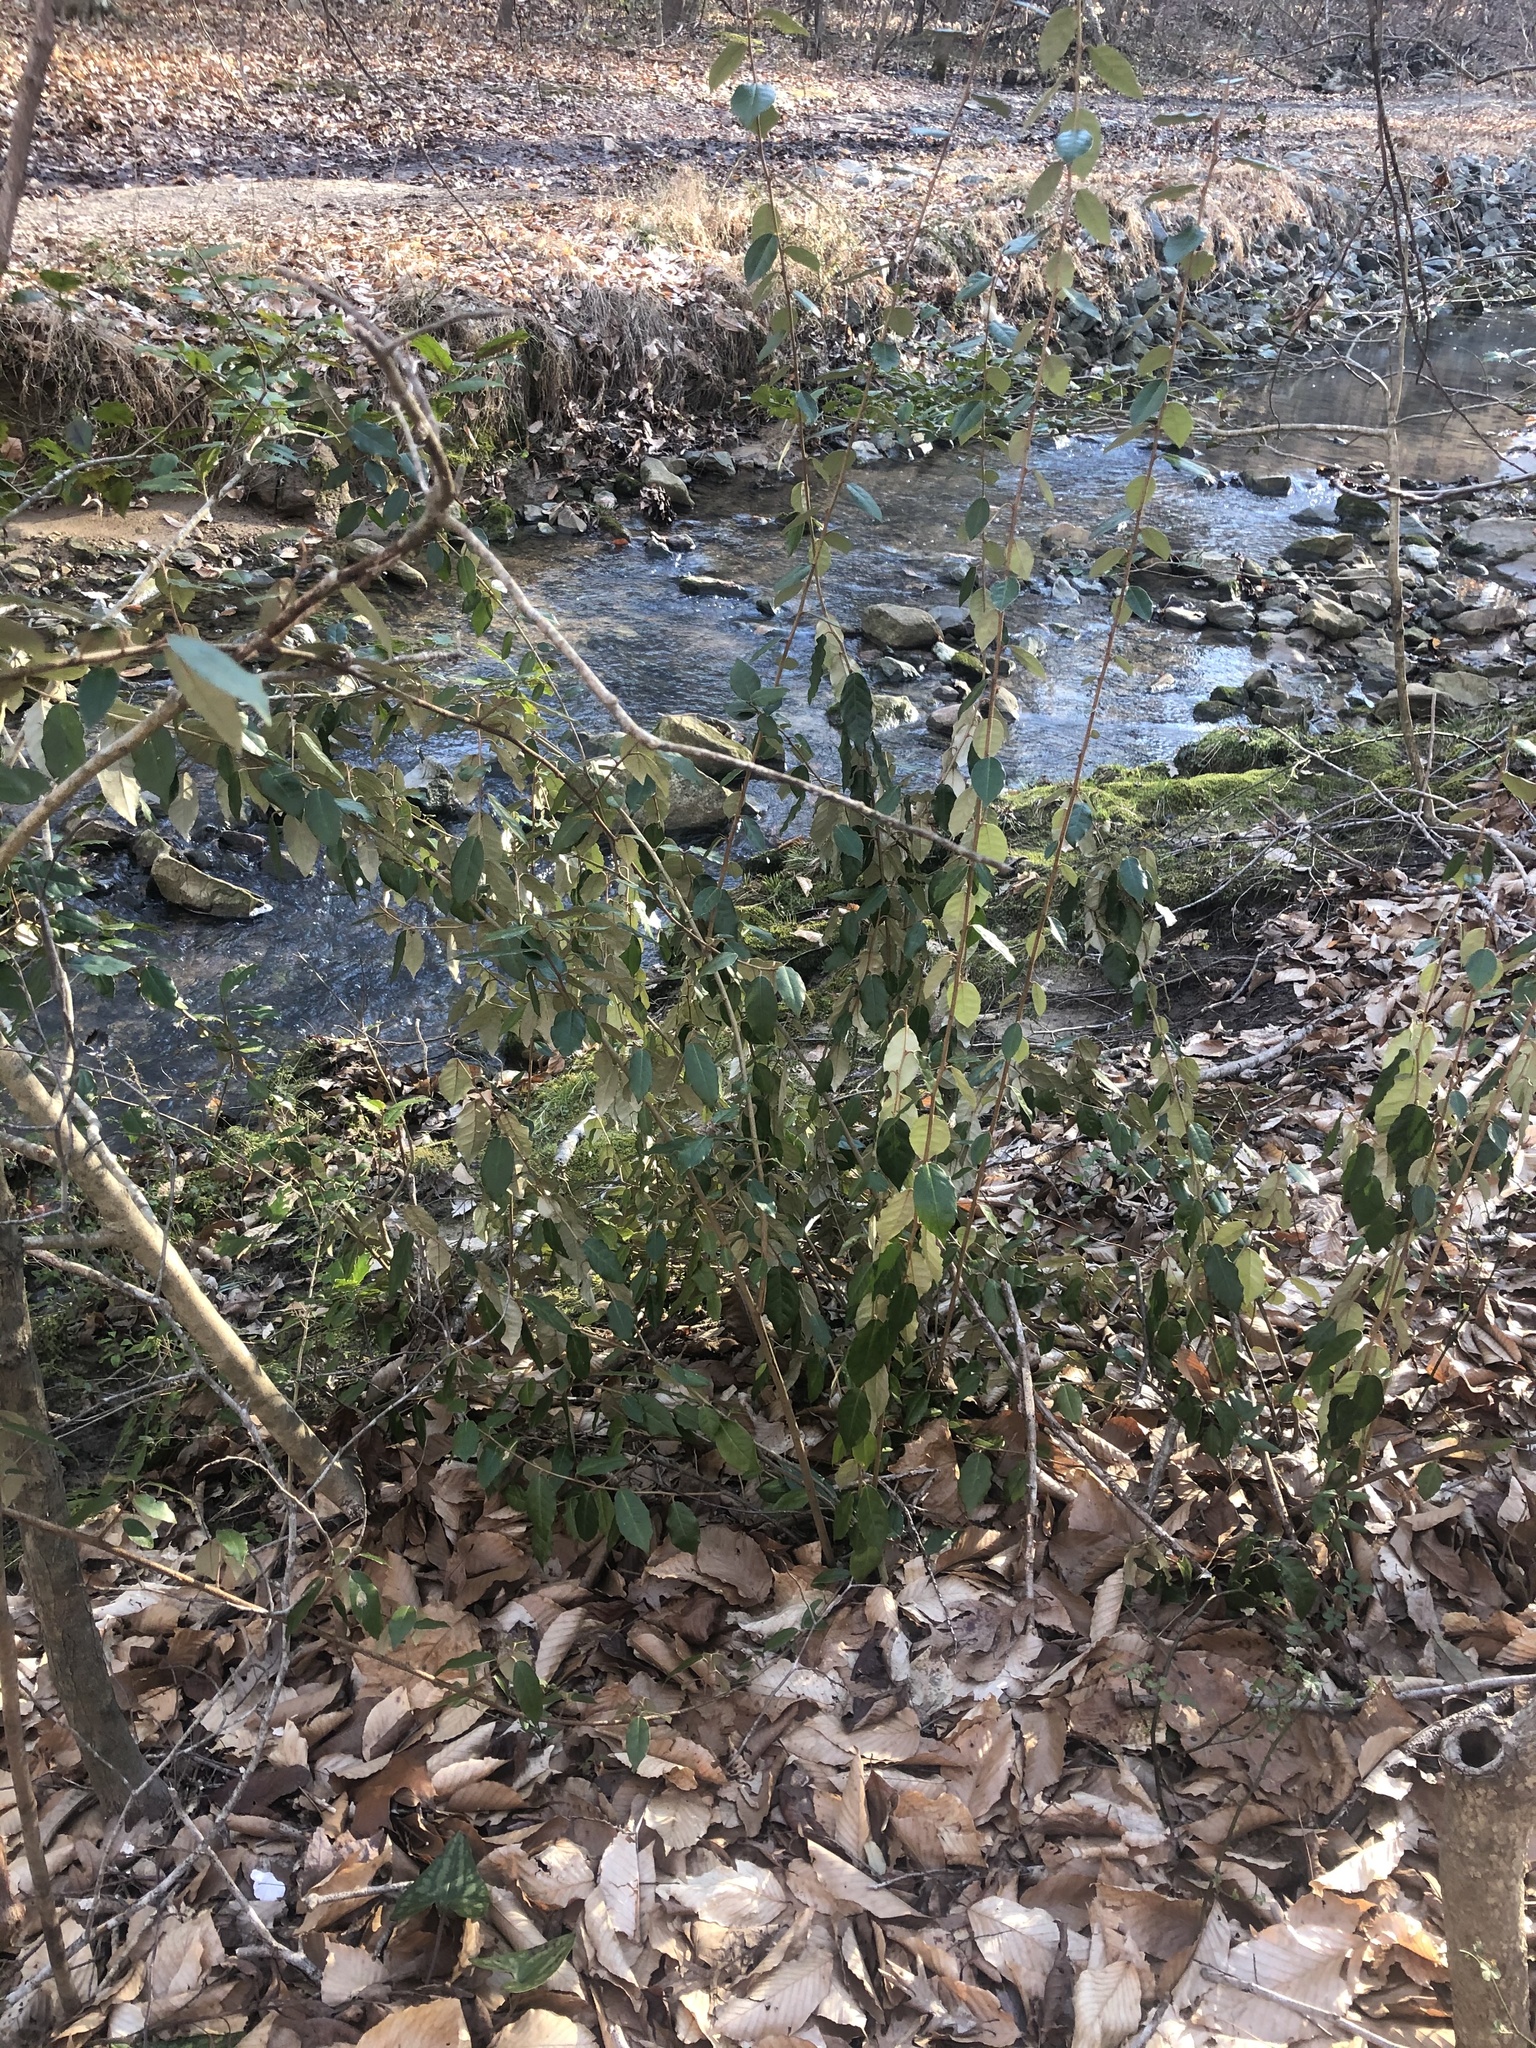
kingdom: Plantae
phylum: Tracheophyta
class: Magnoliopsida
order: Rosales
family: Elaeagnaceae
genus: Elaeagnus
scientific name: Elaeagnus pungens
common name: Spiny oleaster
